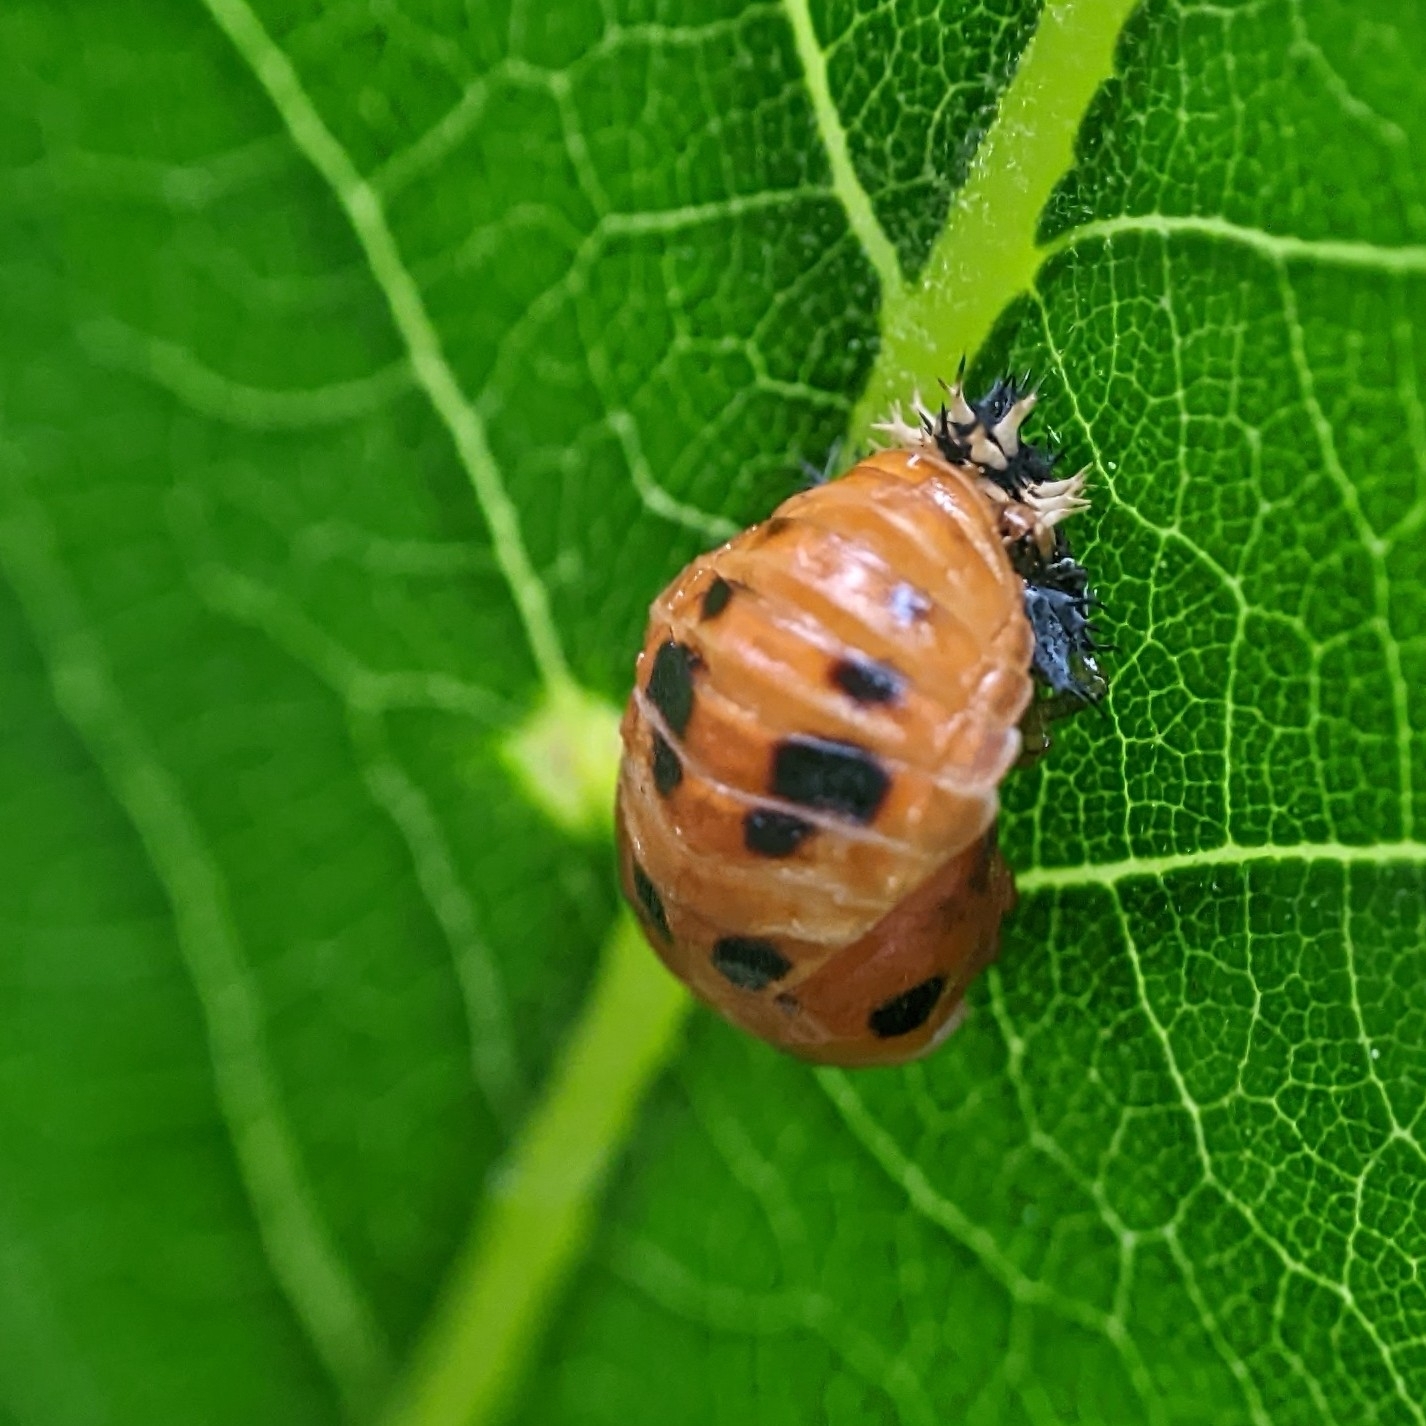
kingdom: Animalia
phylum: Arthropoda
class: Insecta
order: Coleoptera
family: Coccinellidae
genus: Harmonia
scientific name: Harmonia axyridis
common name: Harlequin ladybird
